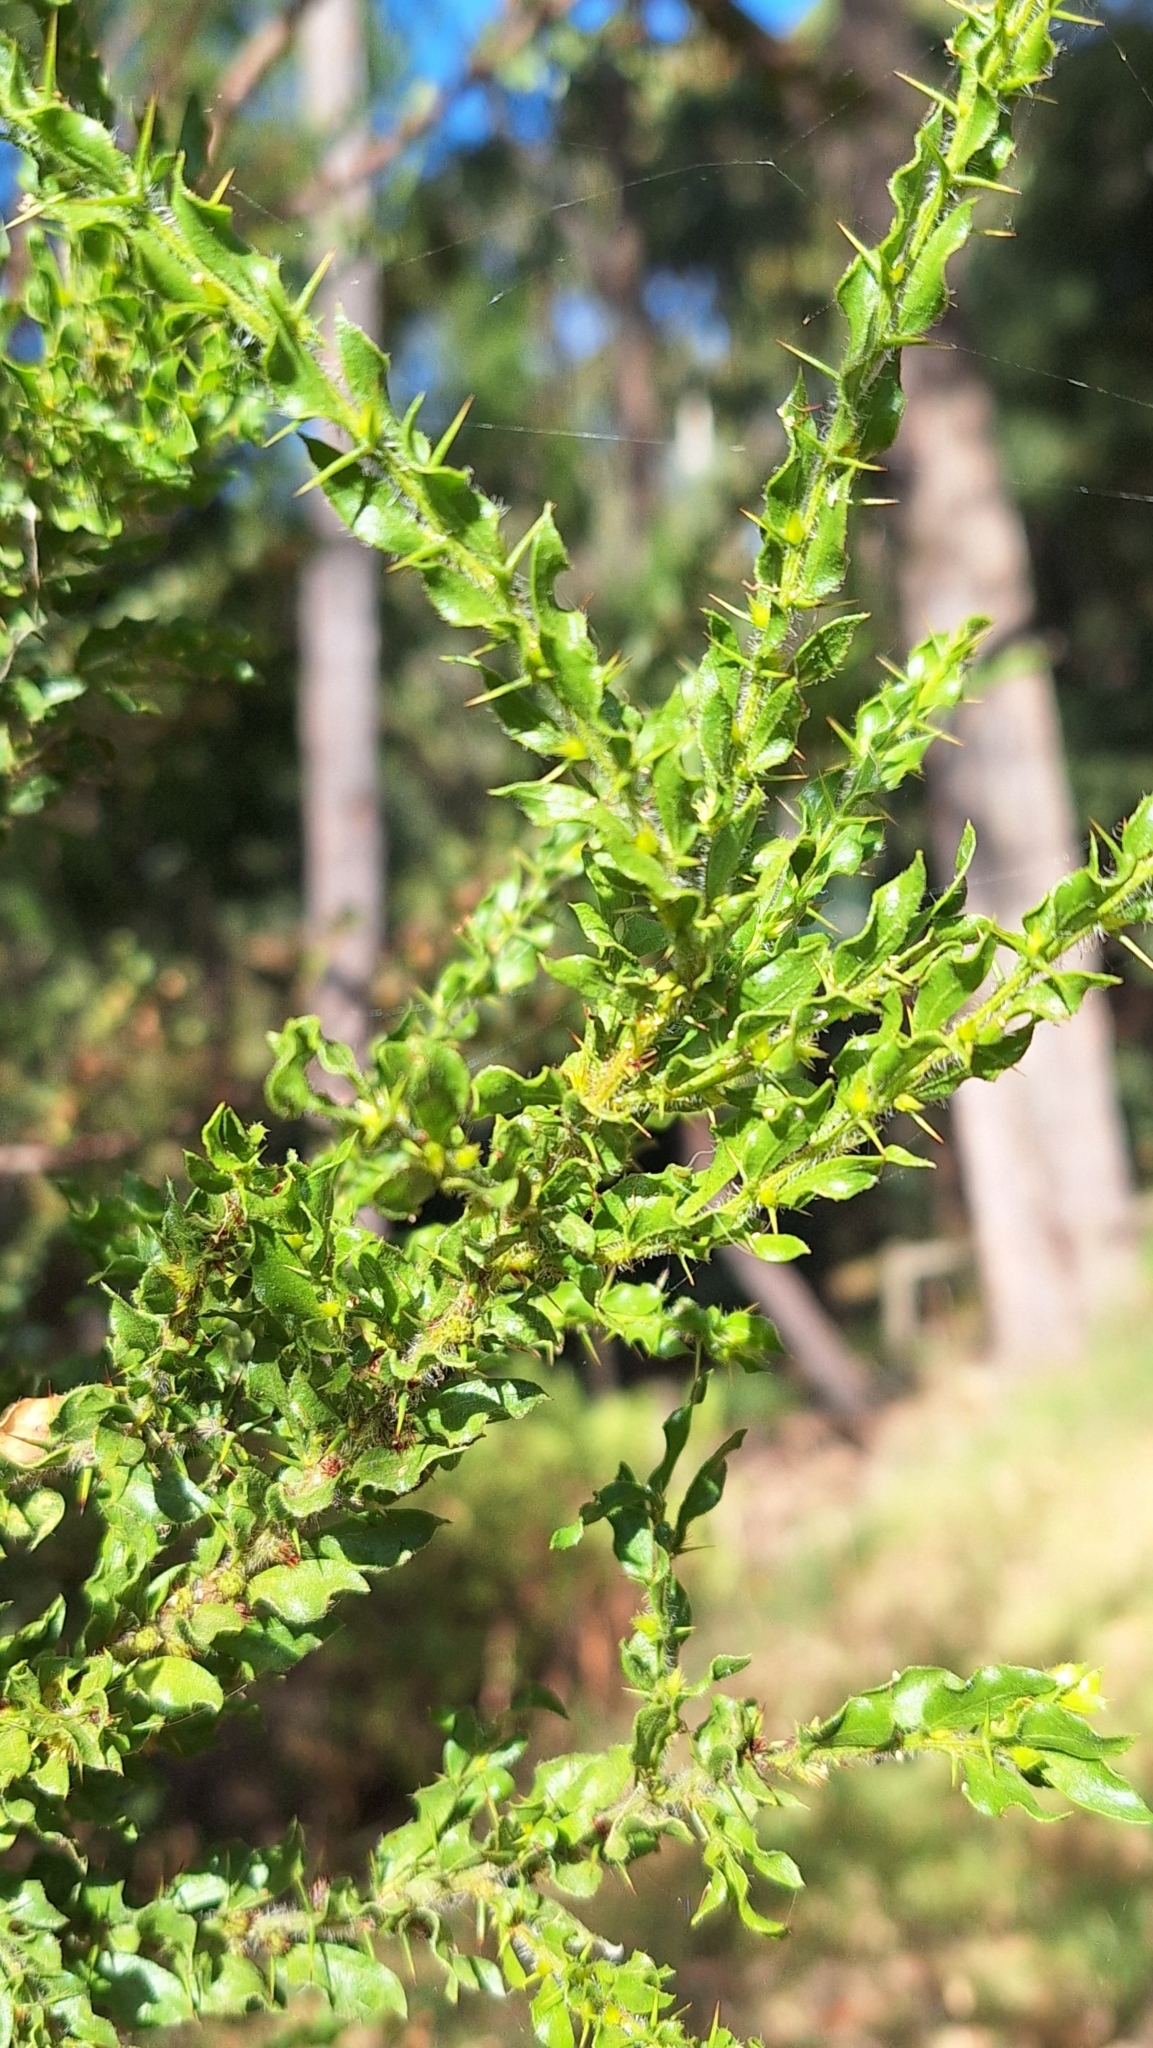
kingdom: Plantae
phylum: Tracheophyta
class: Magnoliopsida
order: Fabales
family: Fabaceae
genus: Acacia
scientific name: Acacia paradoxa
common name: Paradox acacia
